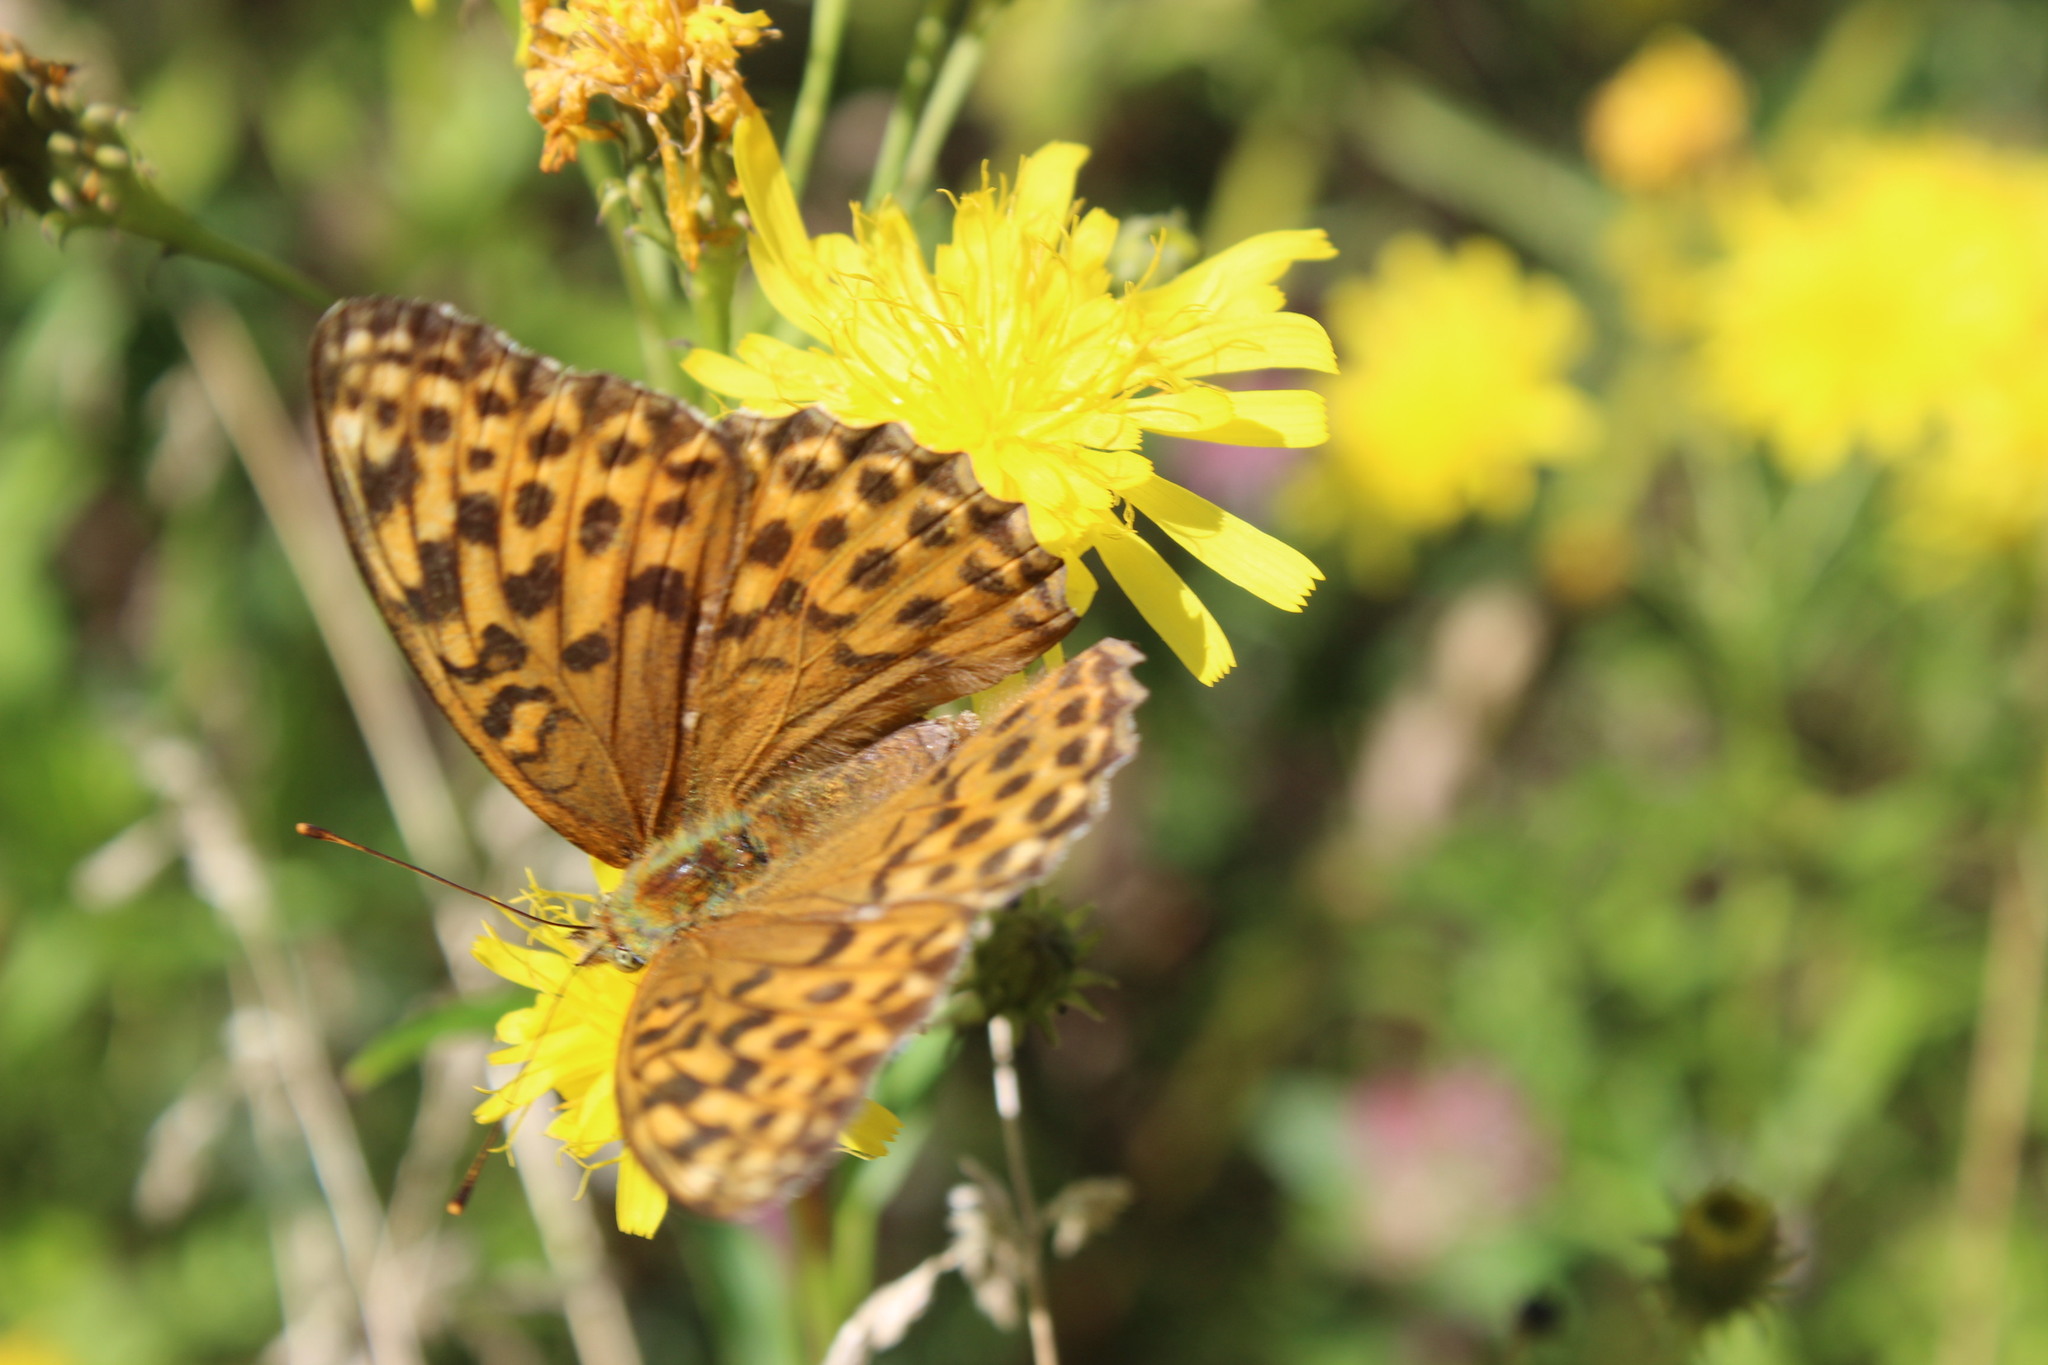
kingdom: Animalia
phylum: Arthropoda
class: Insecta
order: Lepidoptera
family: Nymphalidae
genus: Argynnis
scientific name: Argynnis paphia
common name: Silver-washed fritillary
